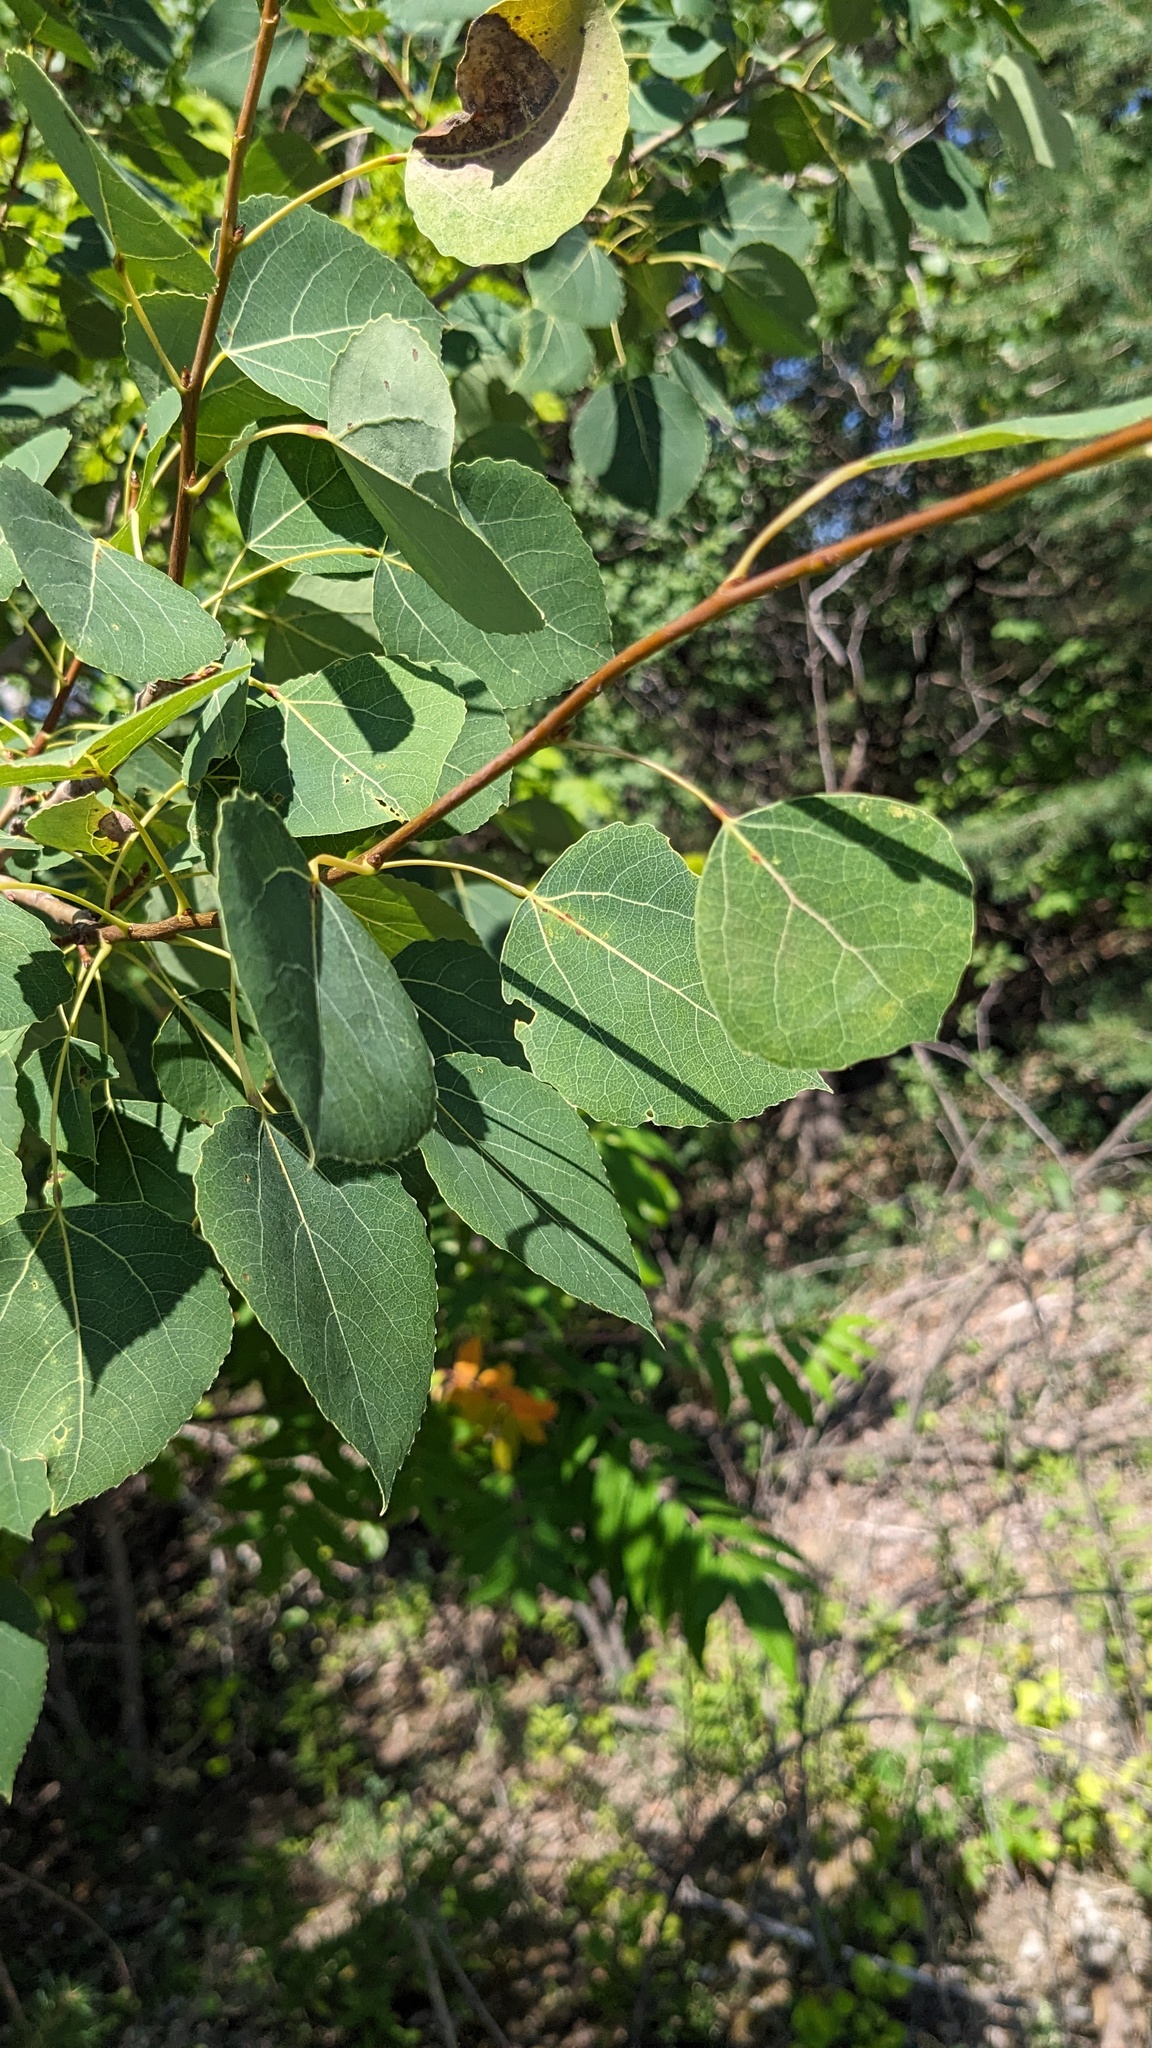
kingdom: Plantae
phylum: Tracheophyta
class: Magnoliopsida
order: Malpighiales
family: Salicaceae
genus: Populus
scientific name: Populus tremuloides
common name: Quaking aspen
